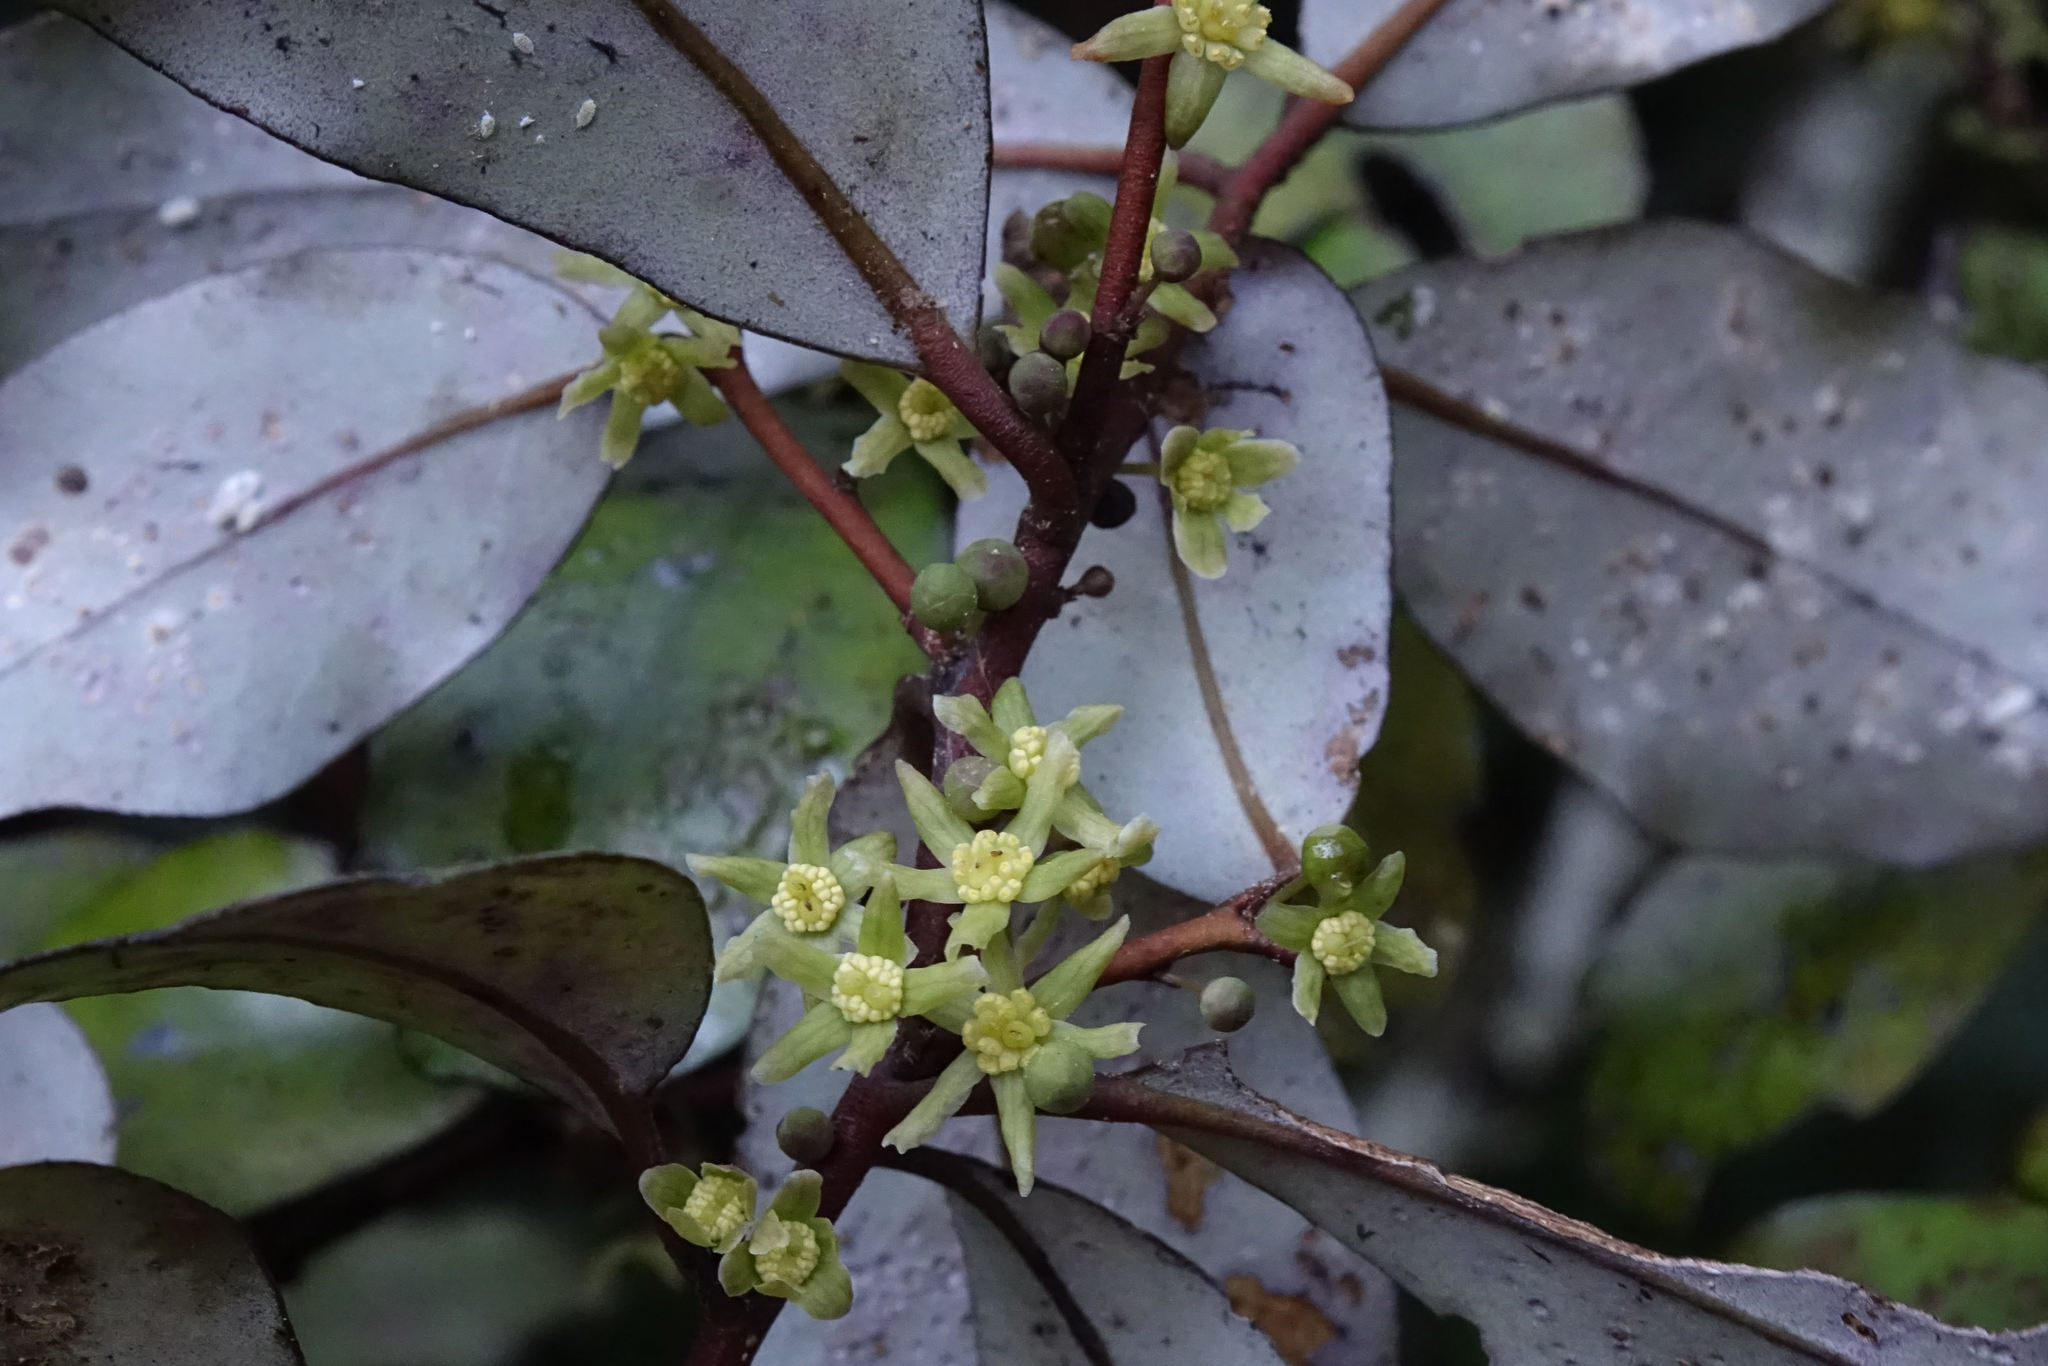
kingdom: Plantae
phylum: Tracheophyta
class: Magnoliopsida
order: Canellales
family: Winteraceae
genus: Pseudowintera
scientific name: Pseudowintera colorata
